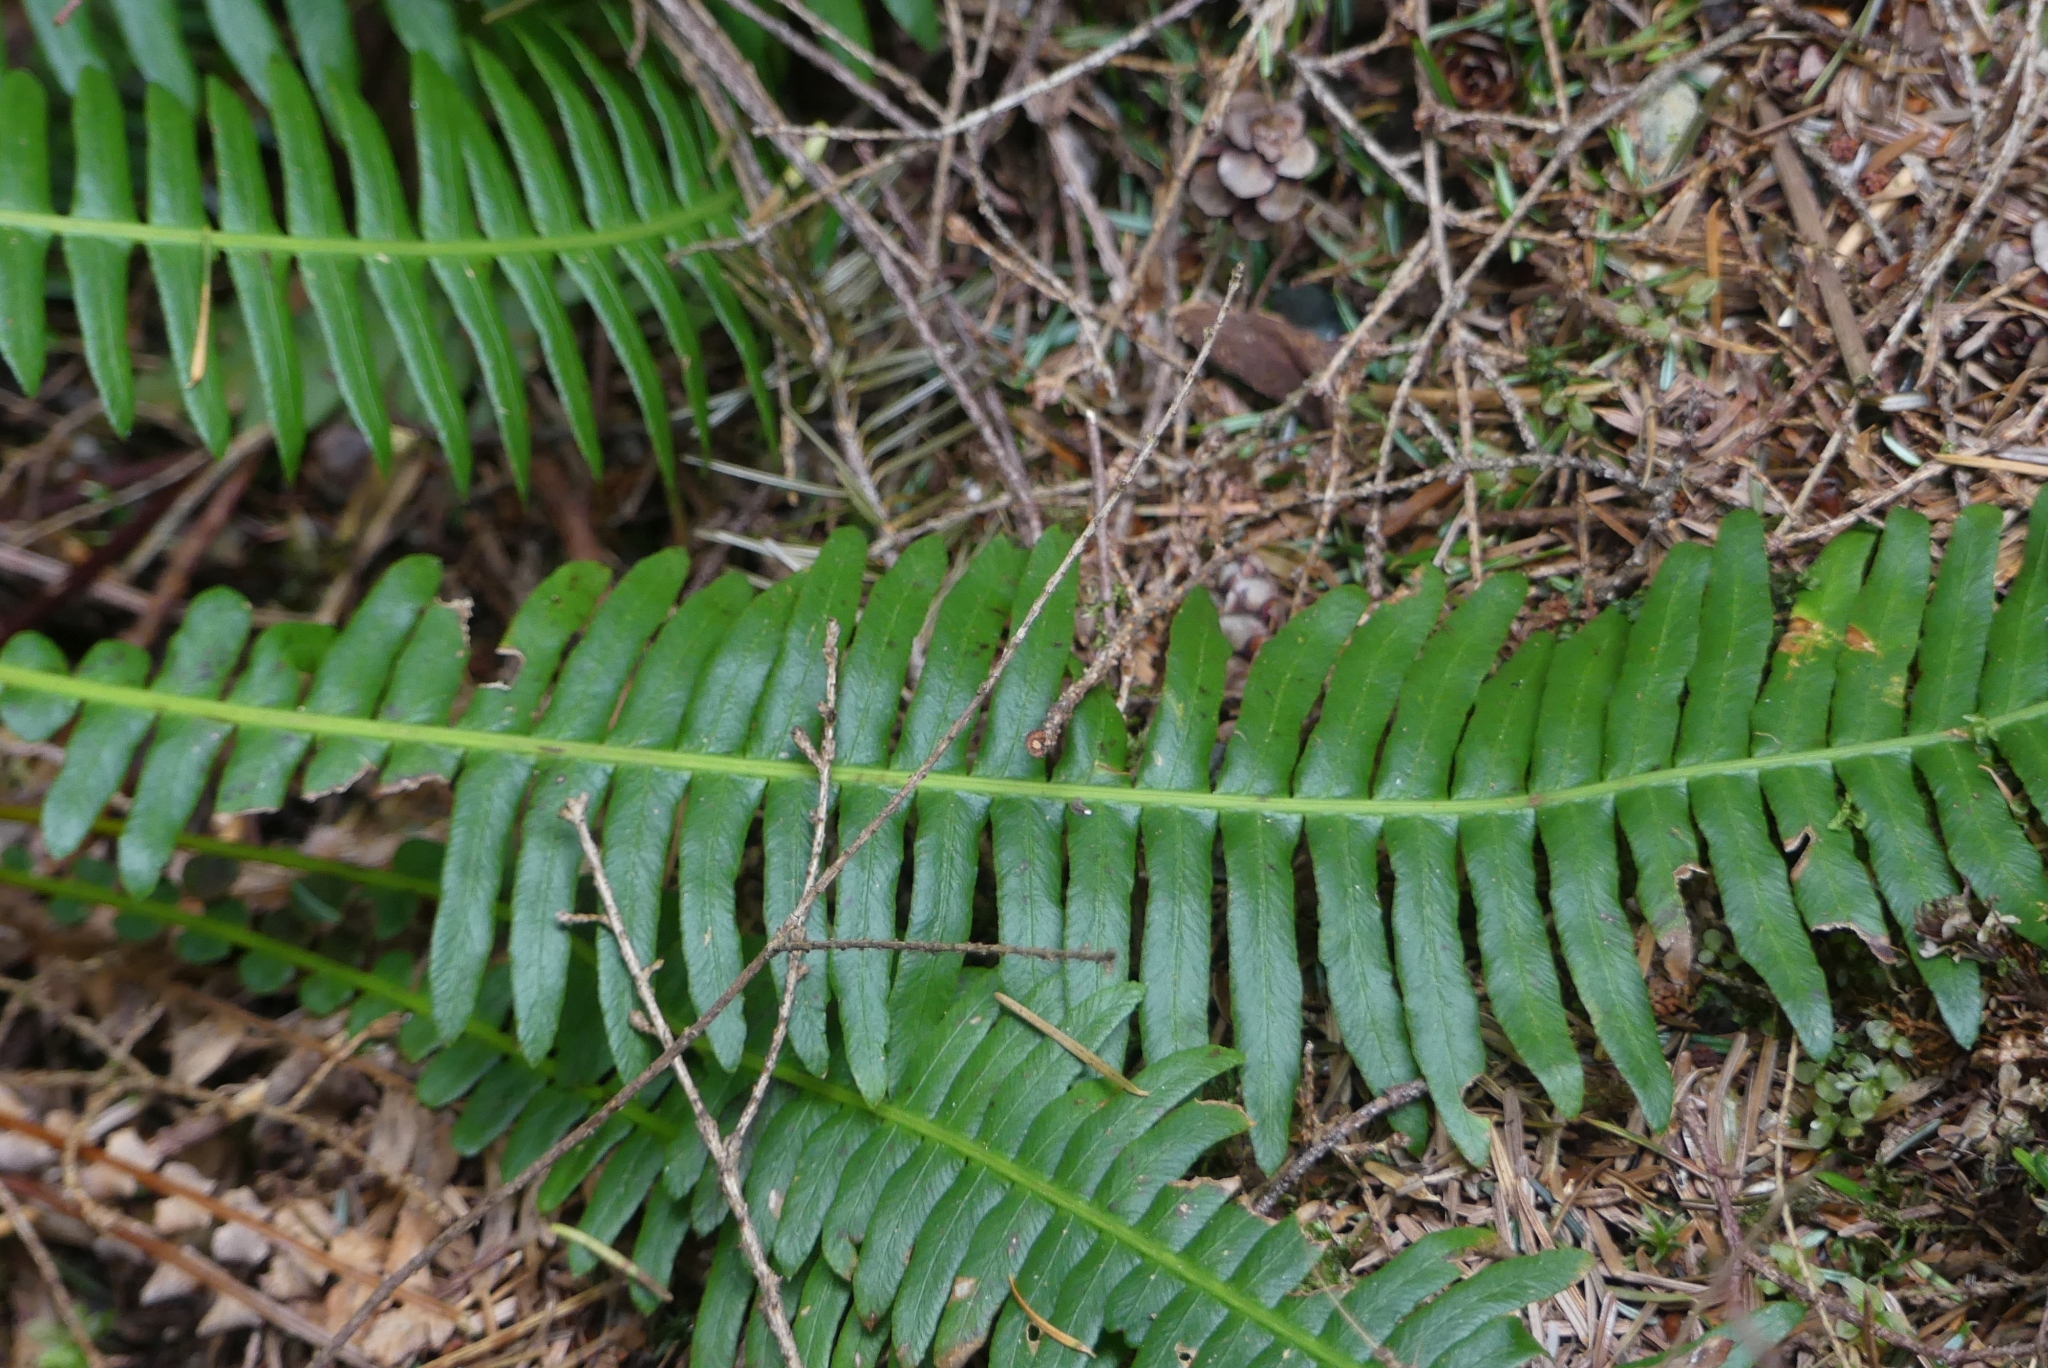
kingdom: Plantae
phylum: Tracheophyta
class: Polypodiopsida
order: Polypodiales
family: Blechnaceae
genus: Struthiopteris
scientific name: Struthiopteris spicant
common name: Deer fern
